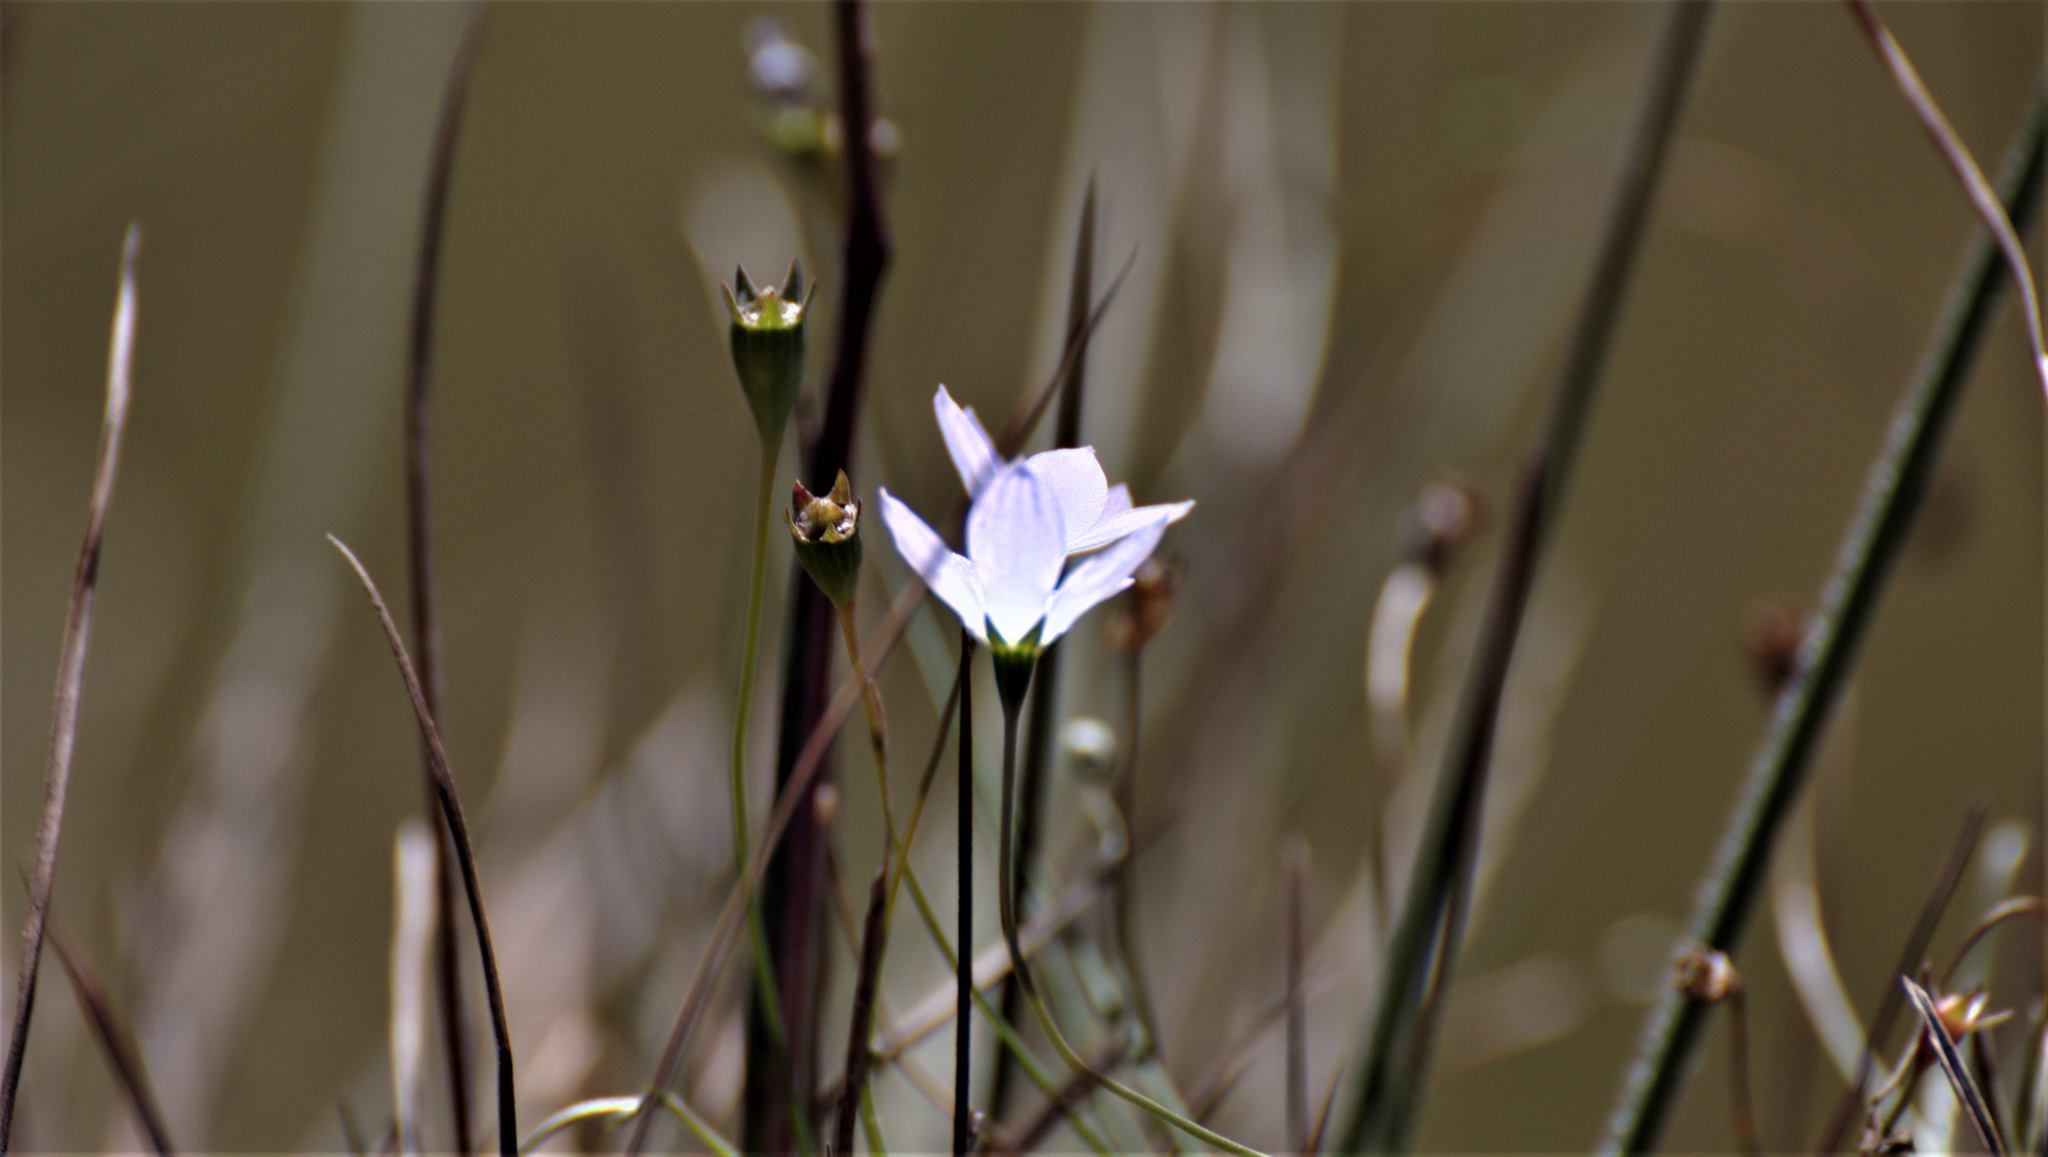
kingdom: Plantae
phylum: Tracheophyta
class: Magnoliopsida
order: Asterales
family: Campanulaceae
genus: Wahlenbergia
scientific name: Wahlenbergia marginata
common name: Southern rockbell
